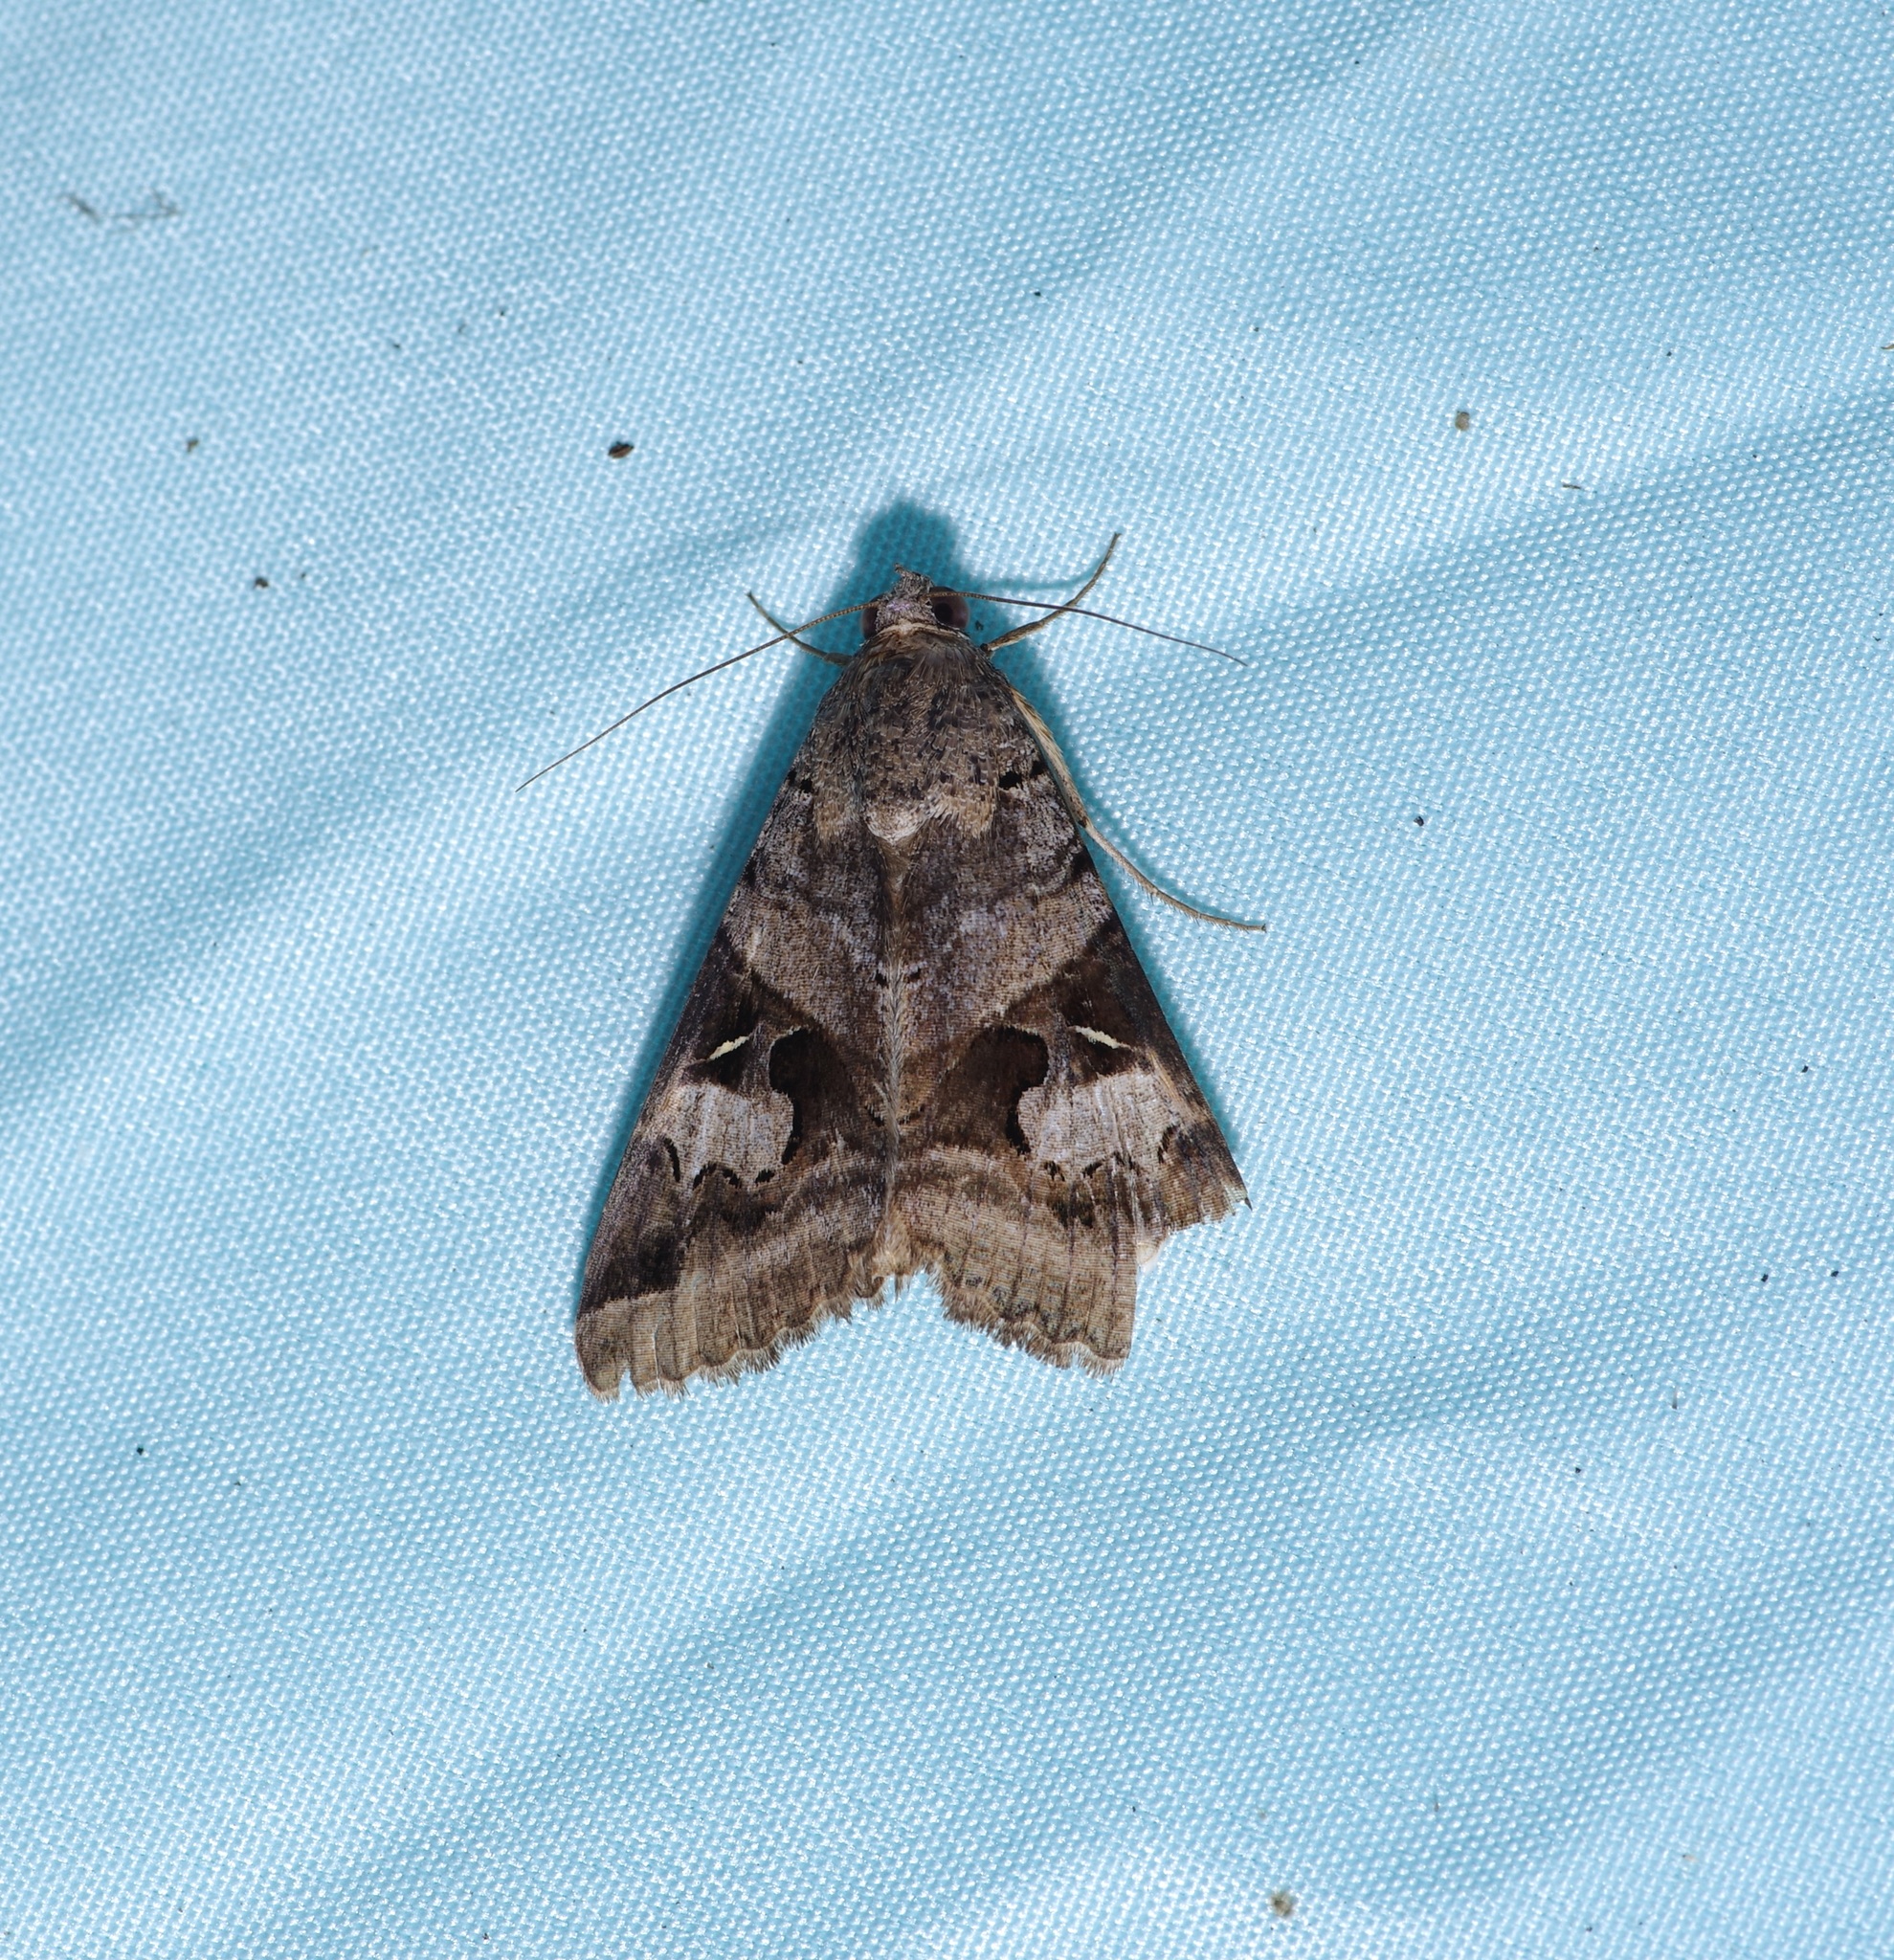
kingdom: Animalia
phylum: Arthropoda
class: Insecta
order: Lepidoptera
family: Erebidae
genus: Melipotis
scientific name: Melipotis indomita
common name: Moth
